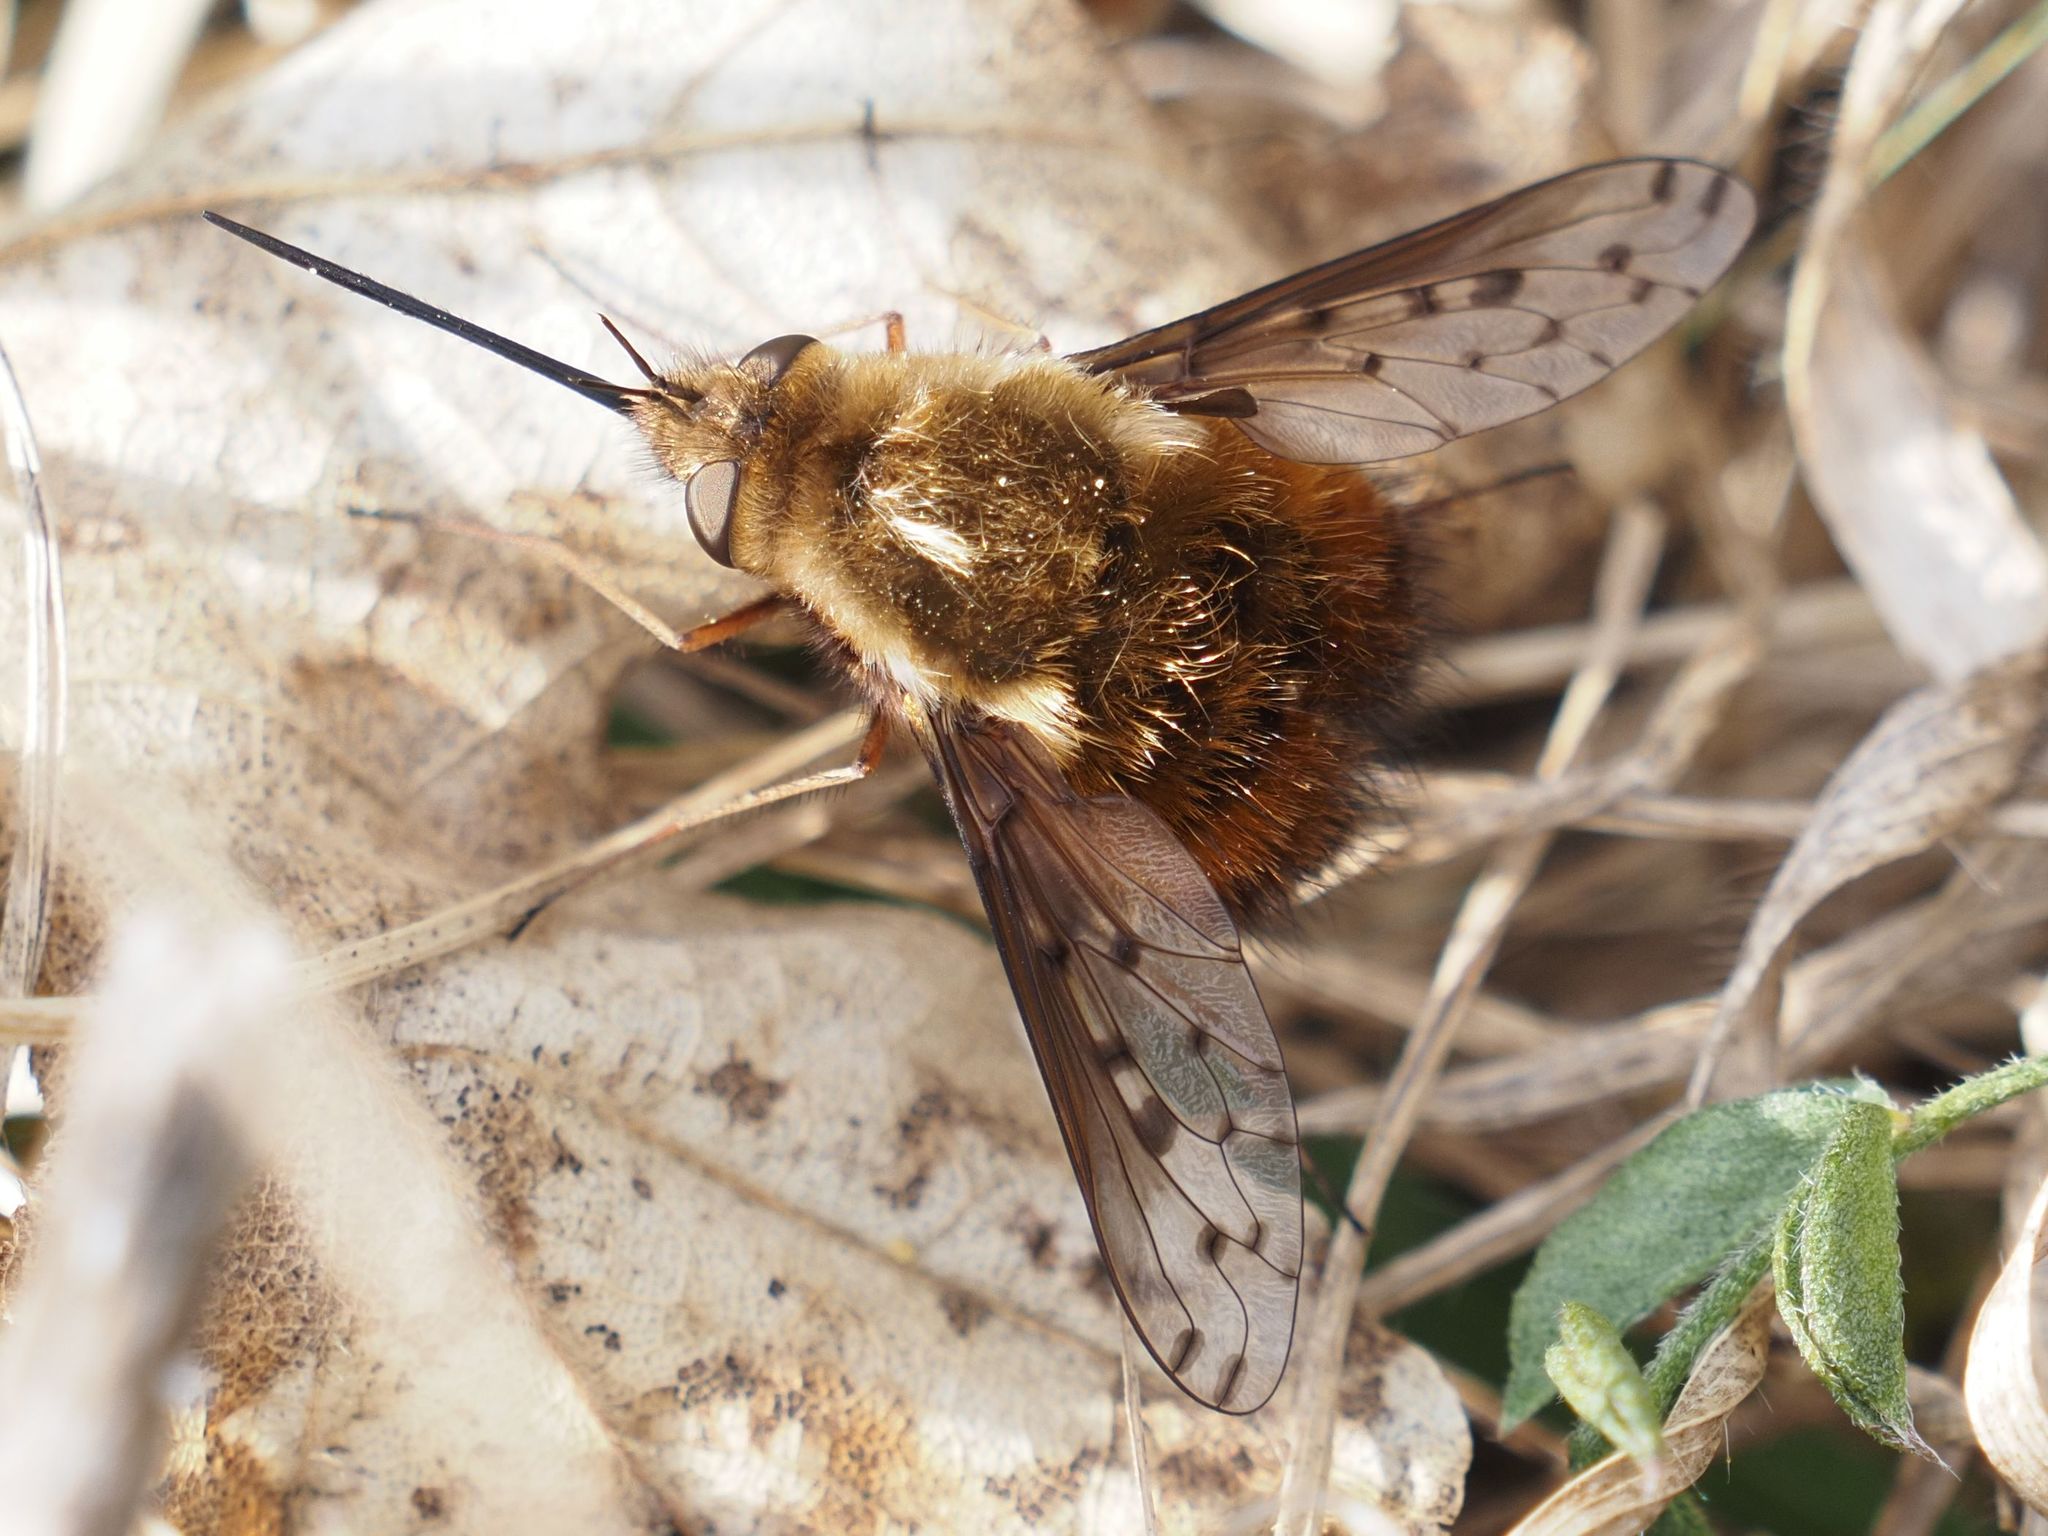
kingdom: Animalia
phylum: Arthropoda
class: Insecta
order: Diptera
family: Bombyliidae
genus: Bombylius
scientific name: Bombylius discolor
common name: Dotted bee-fly
